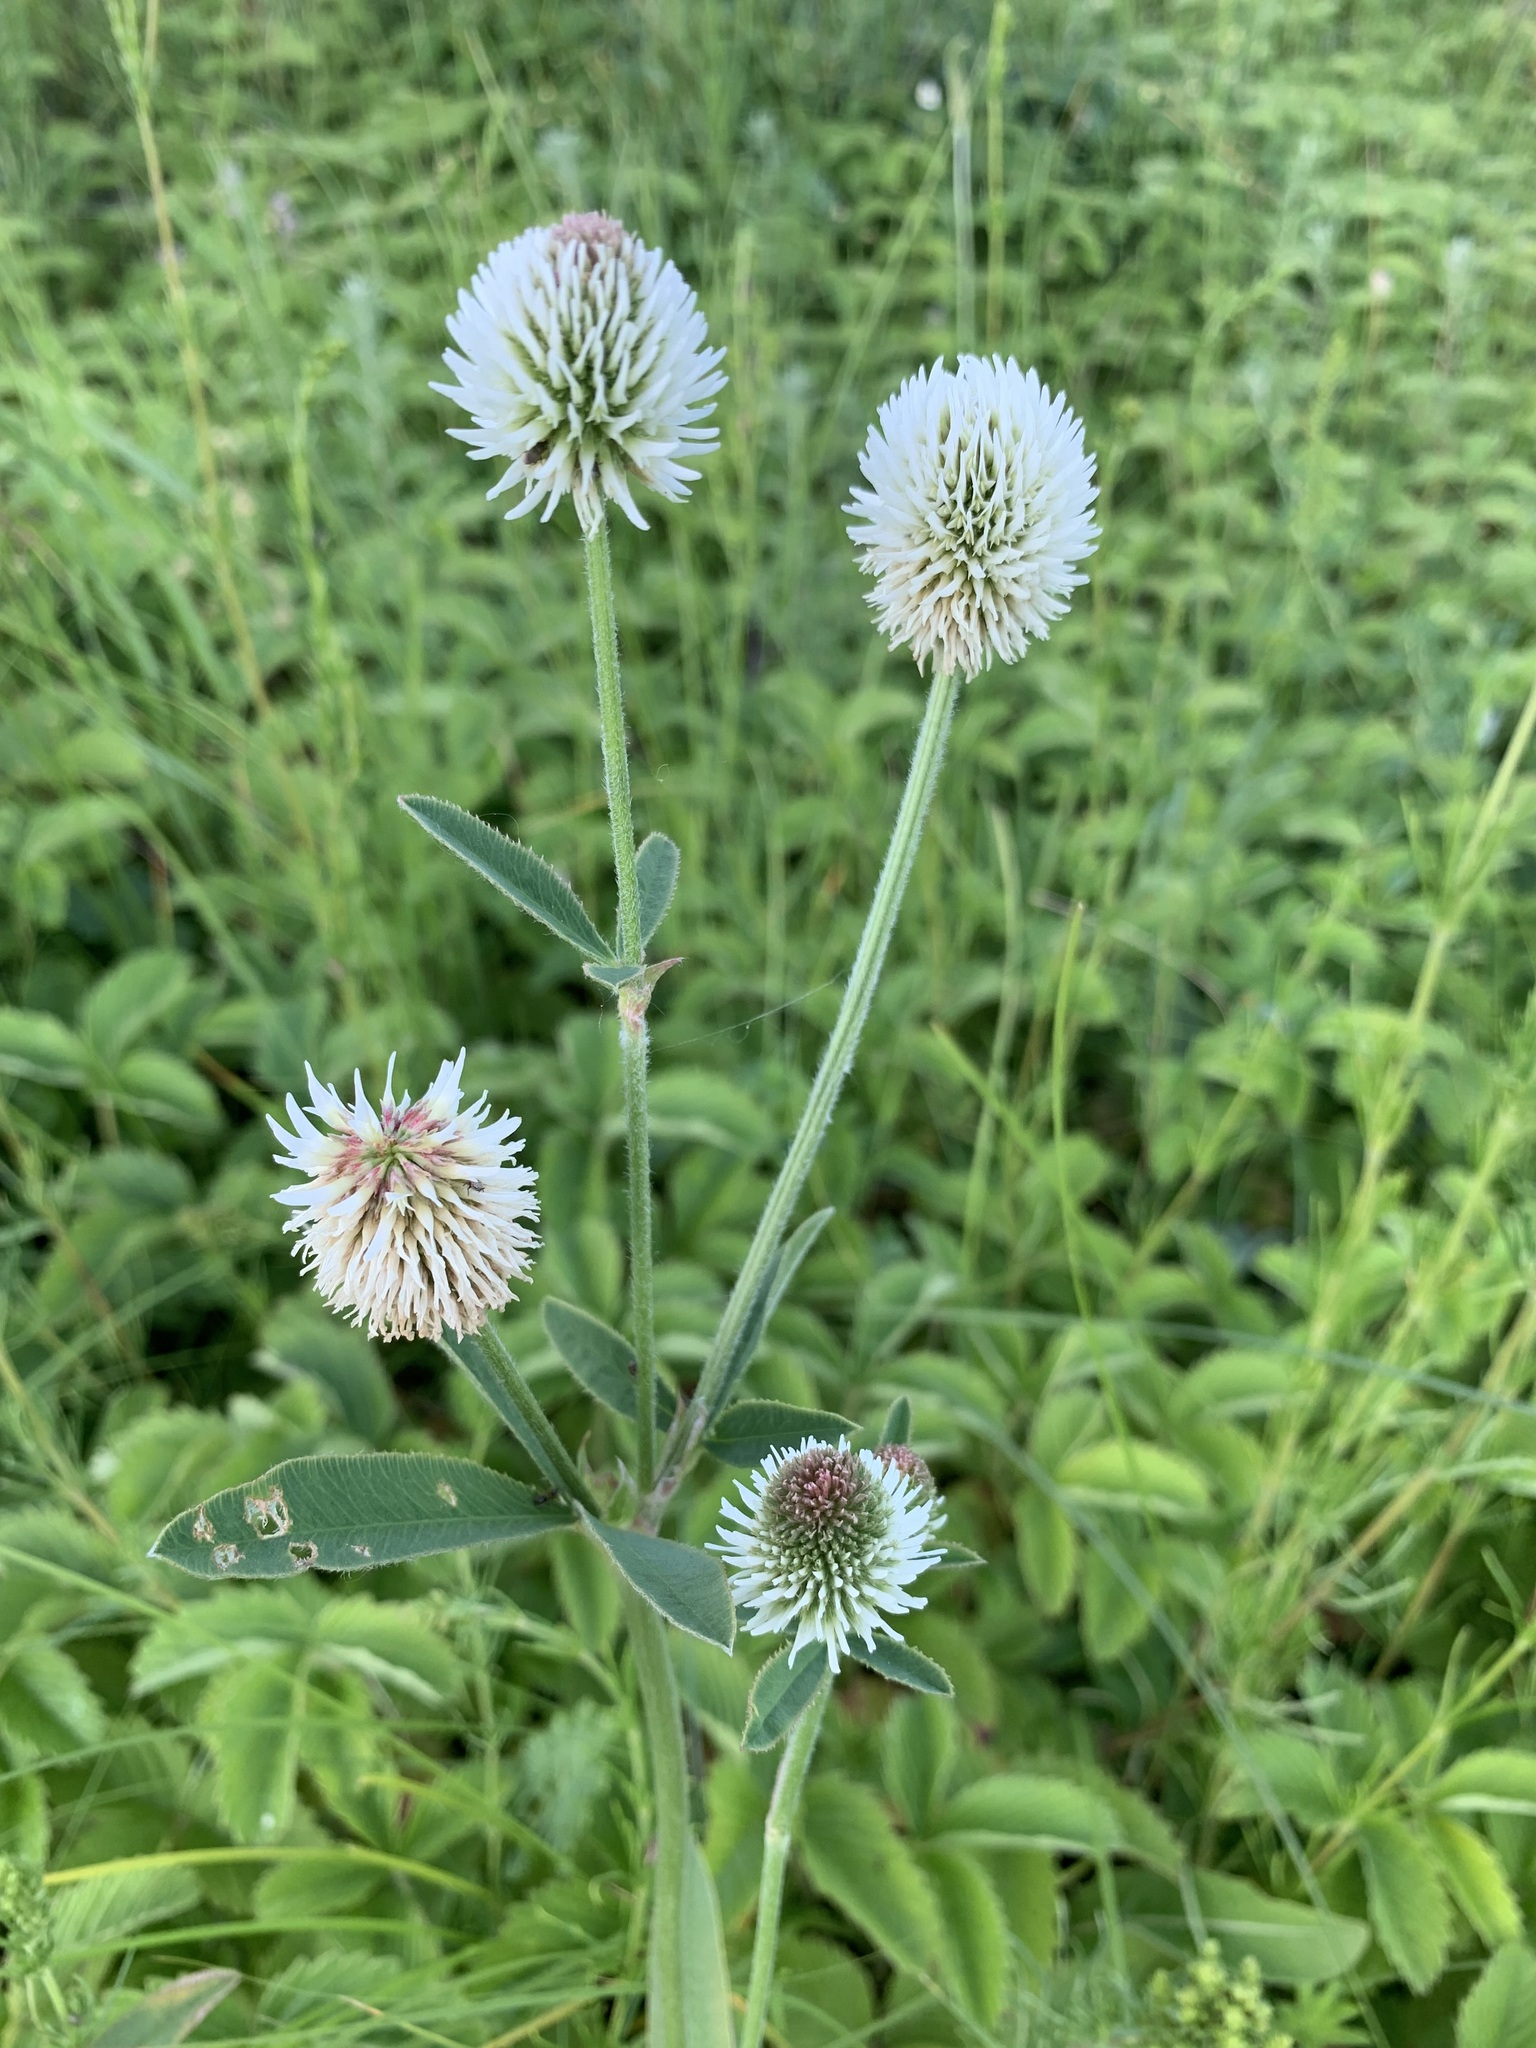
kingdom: Plantae
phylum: Tracheophyta
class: Magnoliopsida
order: Fabales
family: Fabaceae
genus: Trifolium
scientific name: Trifolium montanum
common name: Mountain clover
